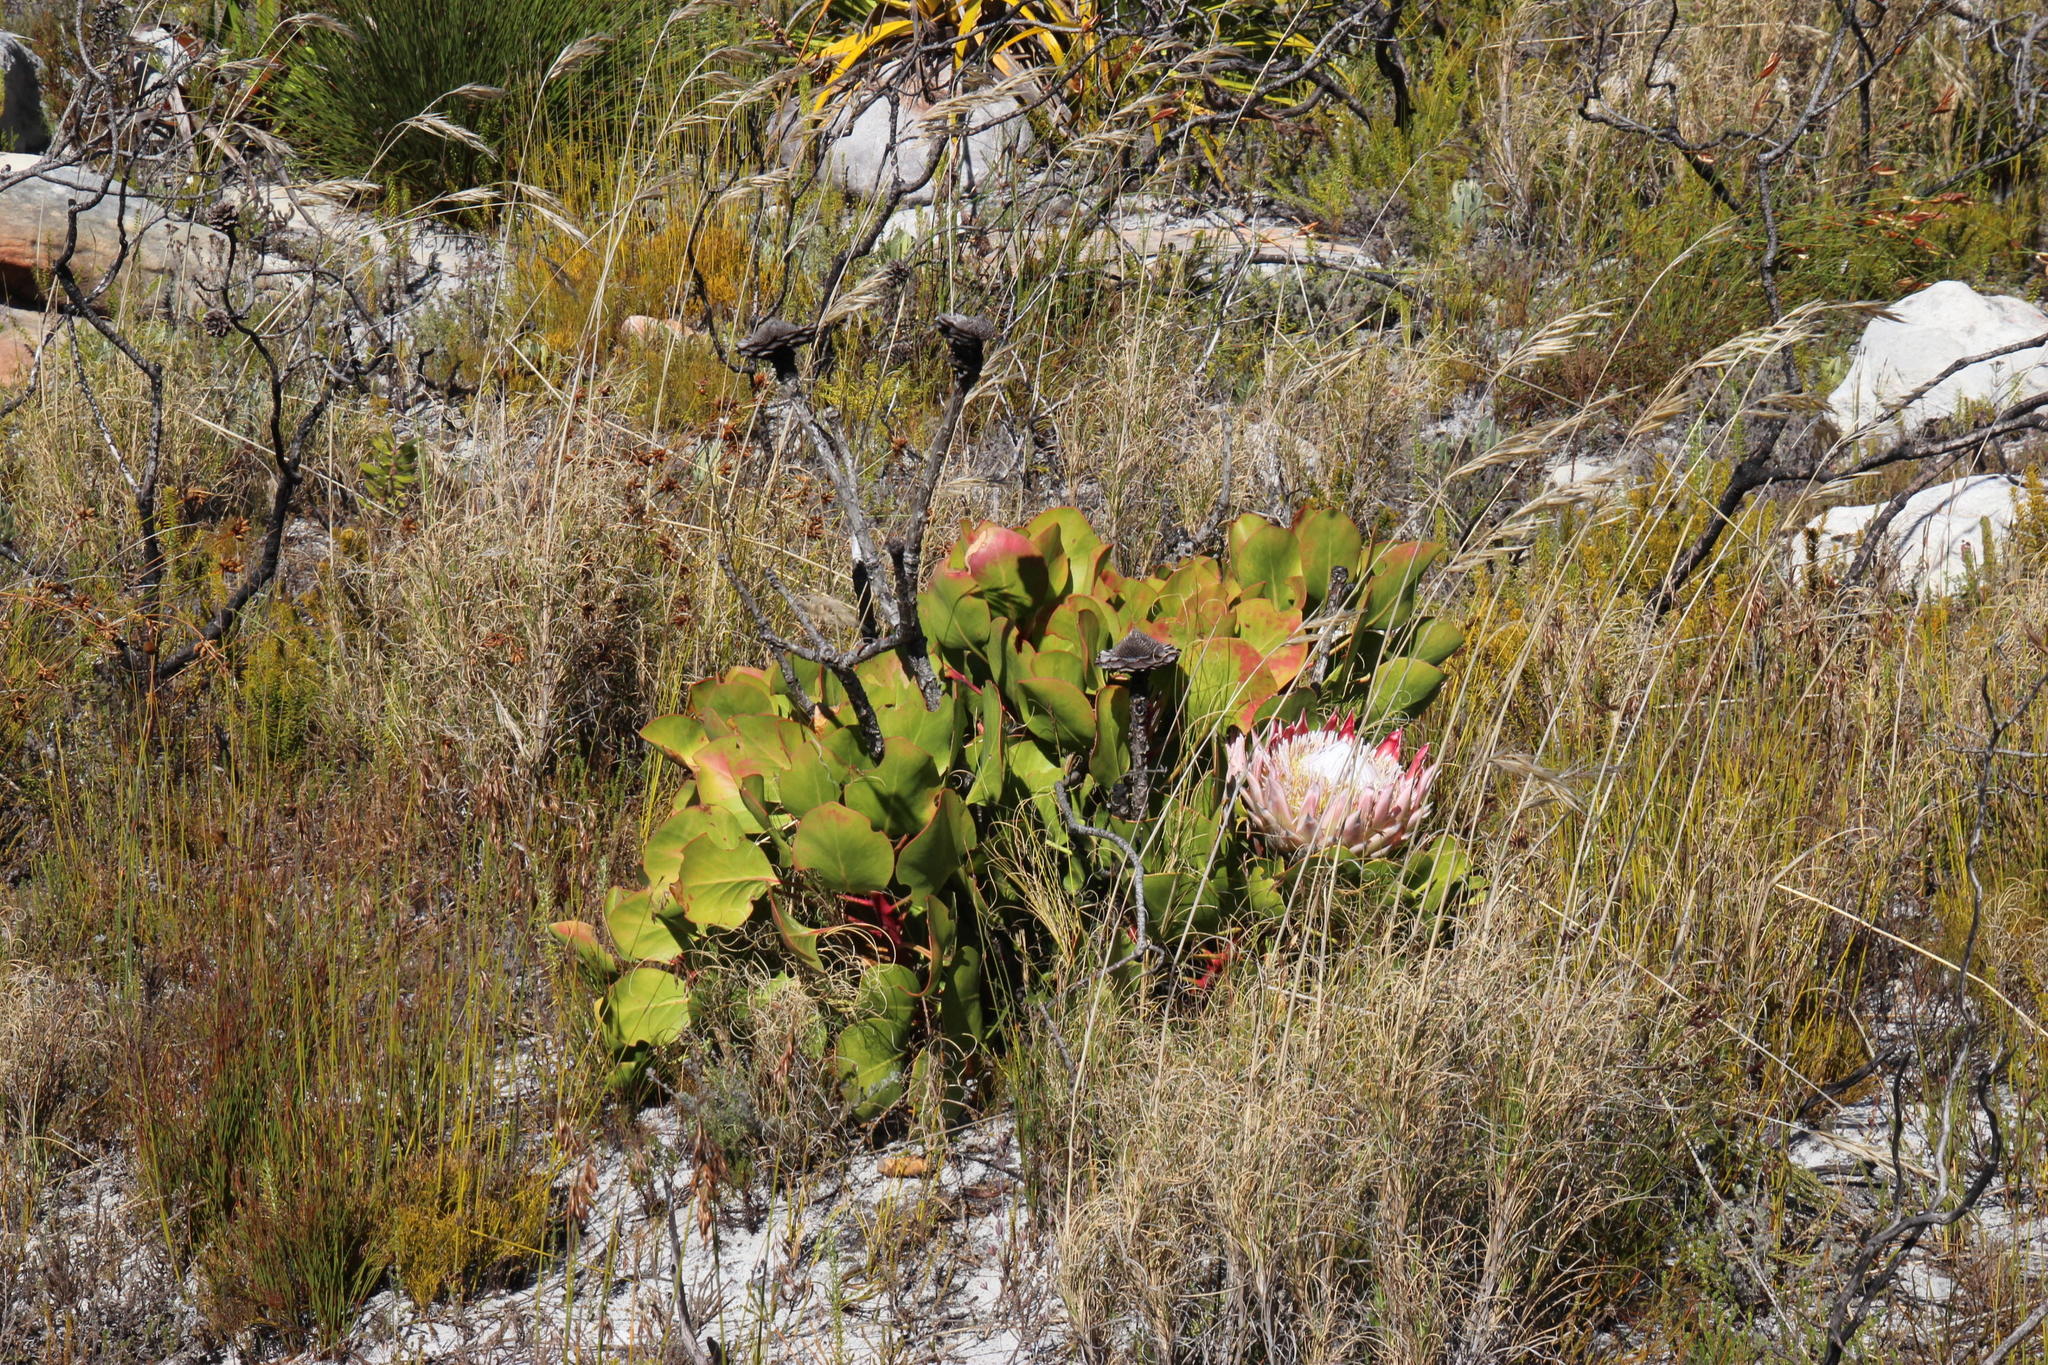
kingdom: Plantae
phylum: Tracheophyta
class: Magnoliopsida
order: Proteales
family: Proteaceae
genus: Protea
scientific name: Protea cynaroides
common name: King protea
